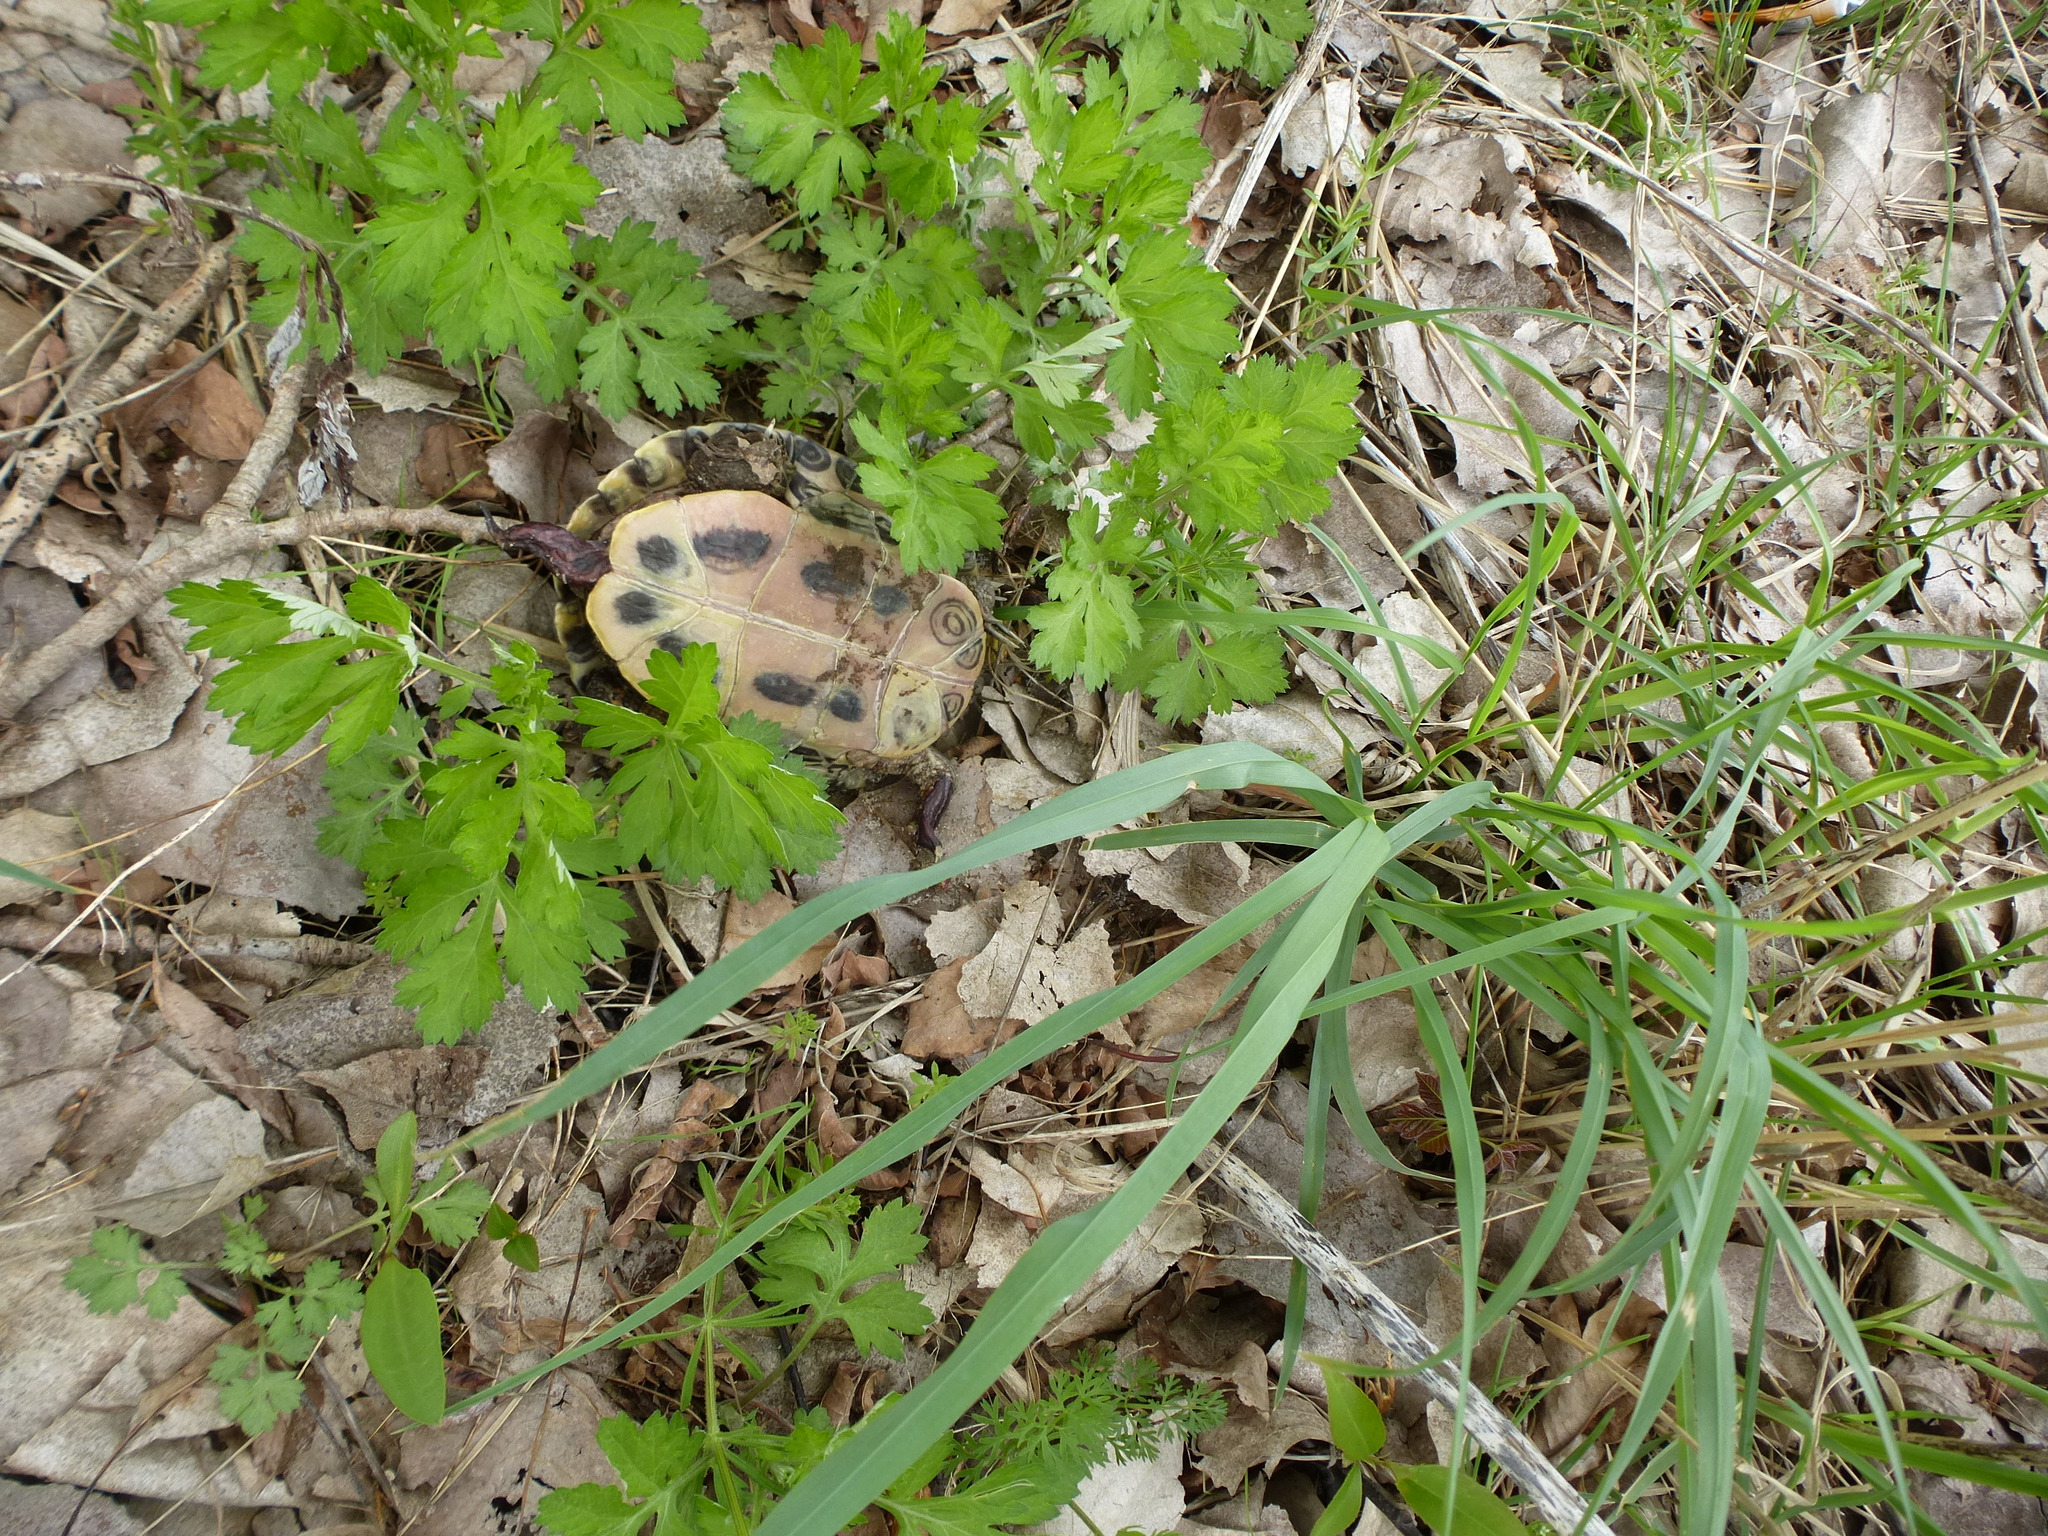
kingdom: Animalia
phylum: Chordata
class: Testudines
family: Emydidae
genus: Trachemys
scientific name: Trachemys scripta
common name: Slider
